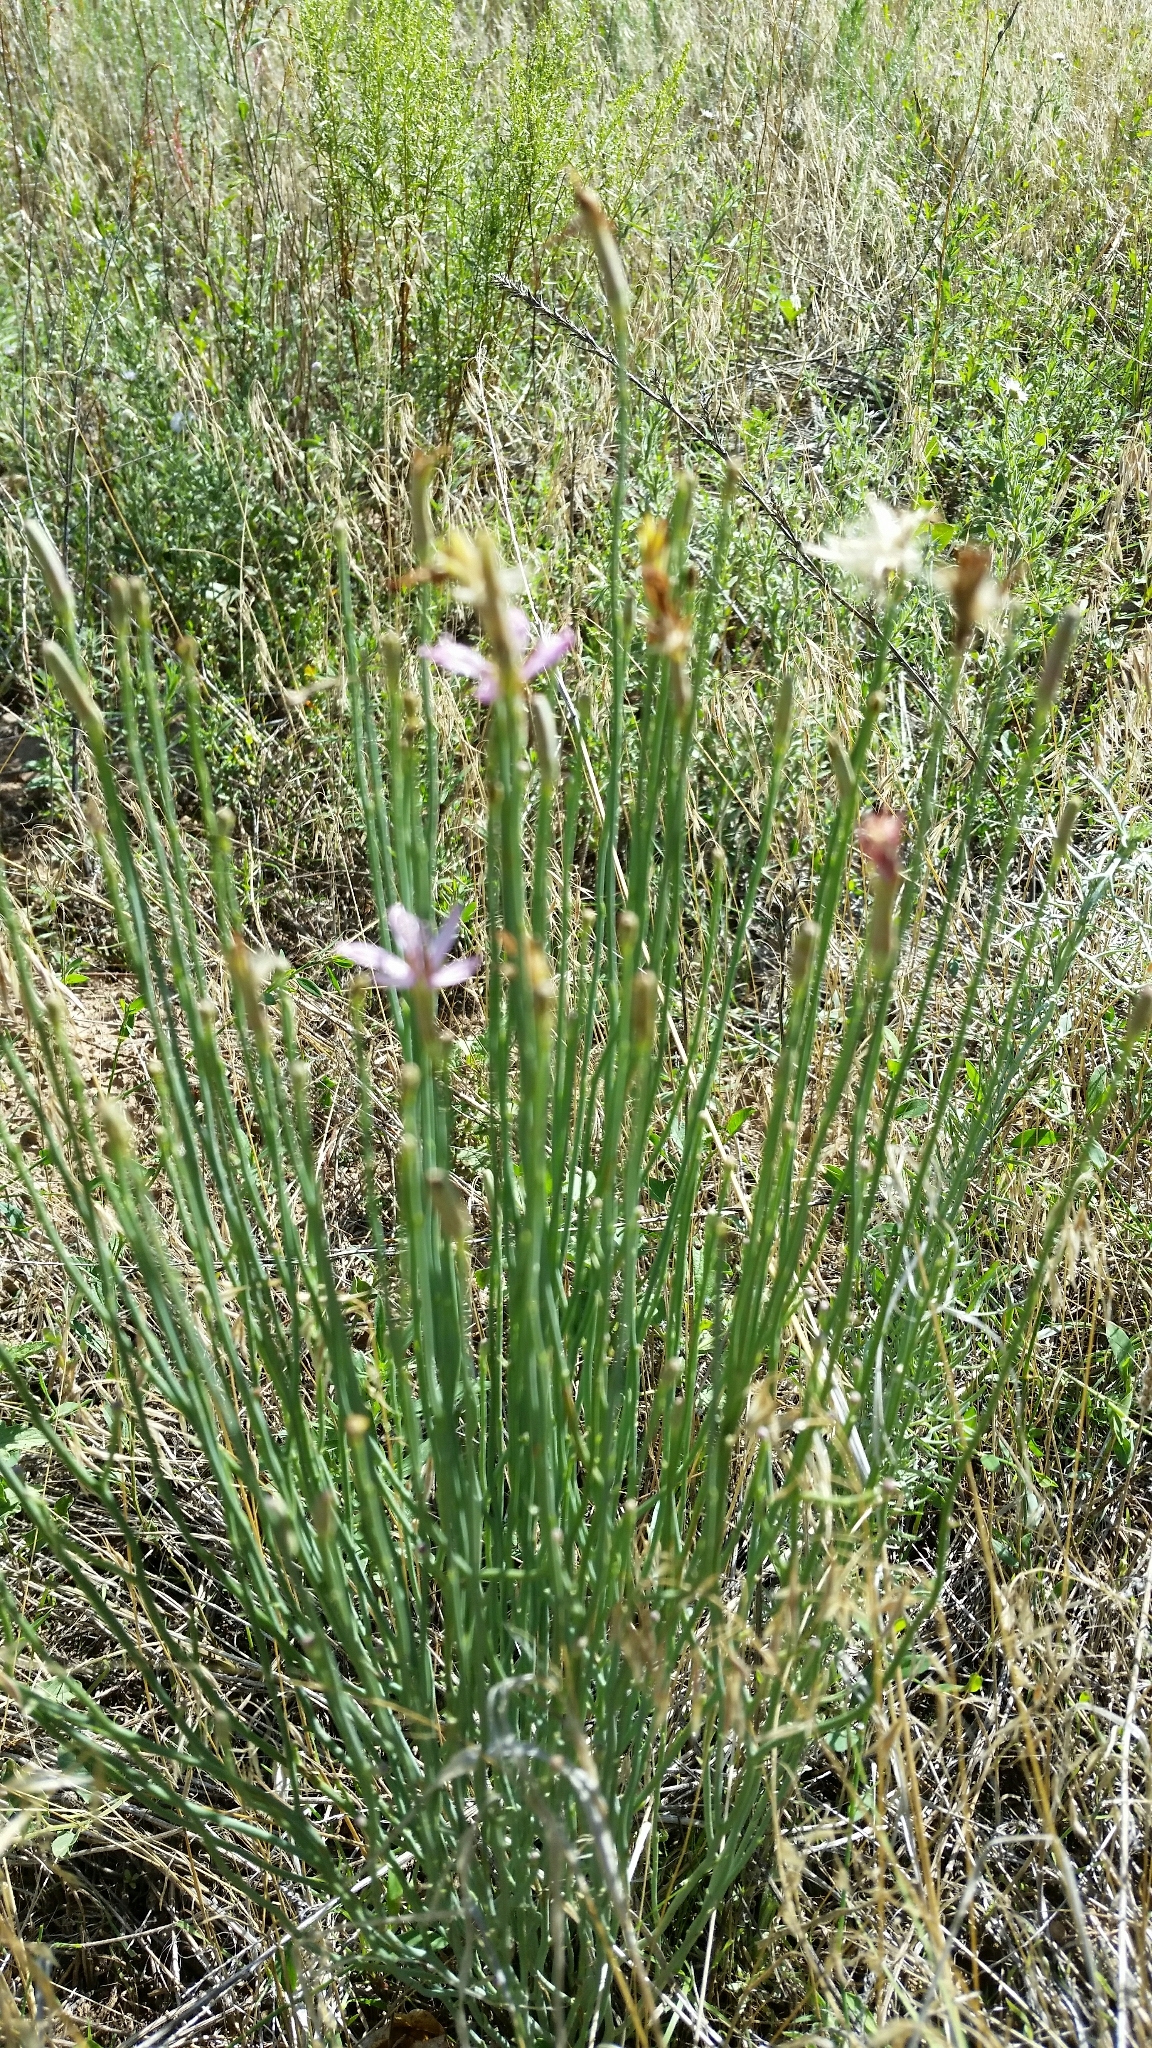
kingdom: Plantae
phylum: Tracheophyta
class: Magnoliopsida
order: Asterales
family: Asteraceae
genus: Lygodesmia
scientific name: Lygodesmia juncea
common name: Common skeletonweed
